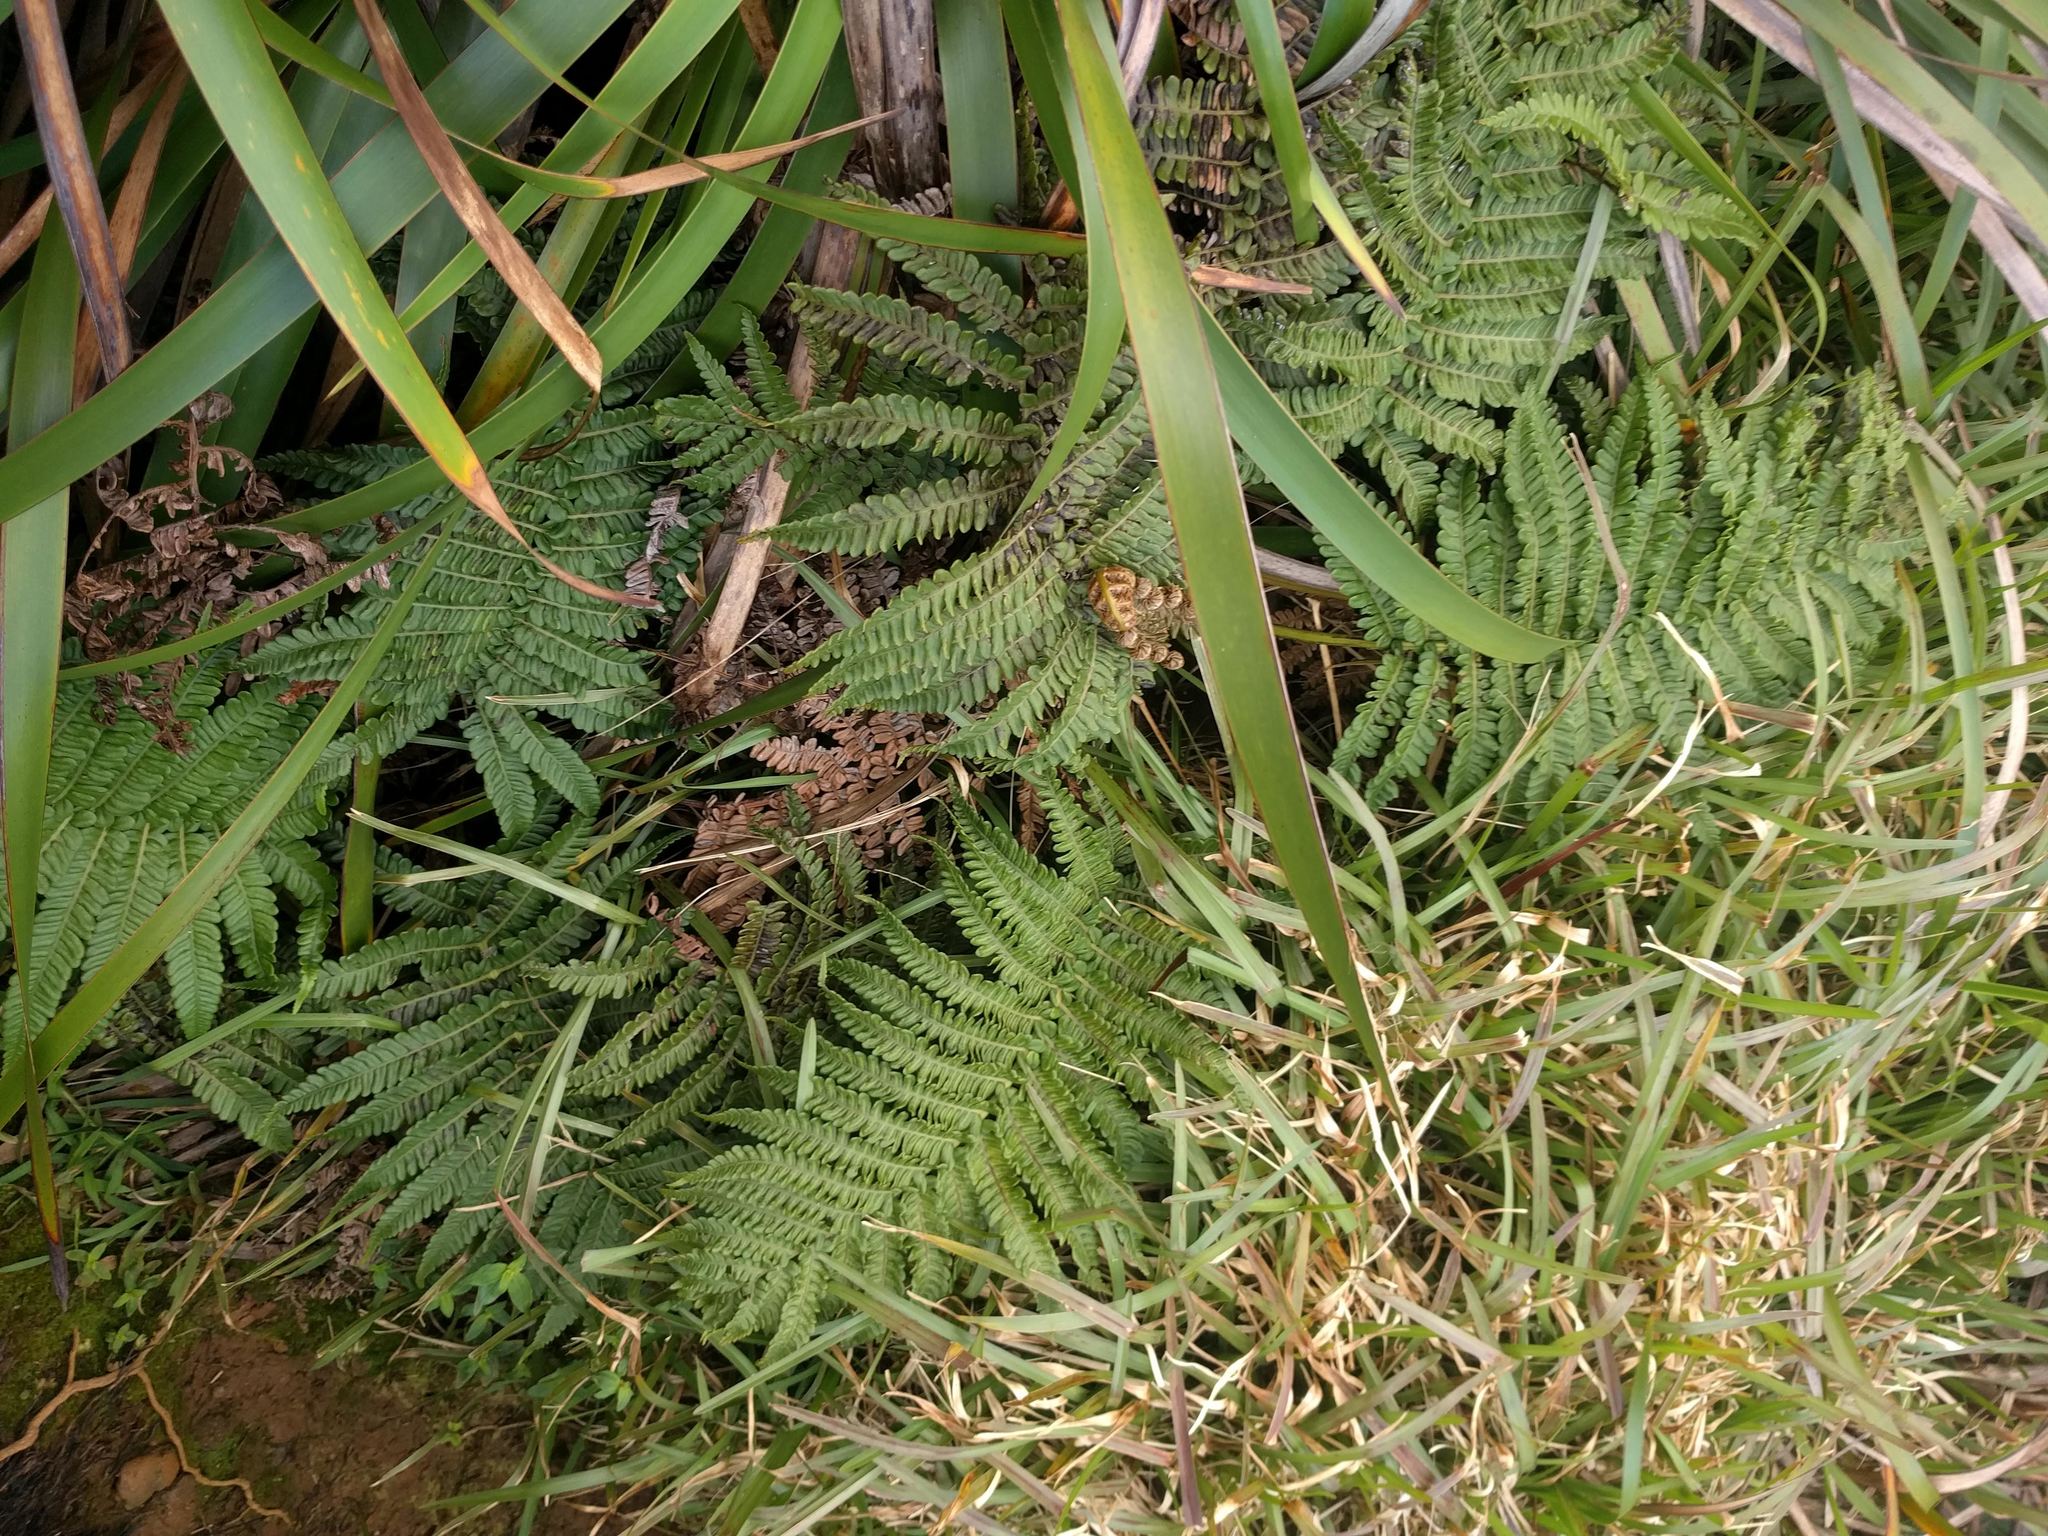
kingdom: Plantae
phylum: Tracheophyta
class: Polypodiopsida
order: Polypodiales
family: Blechnaceae
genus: Sadleria
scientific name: Sadleria pallida
